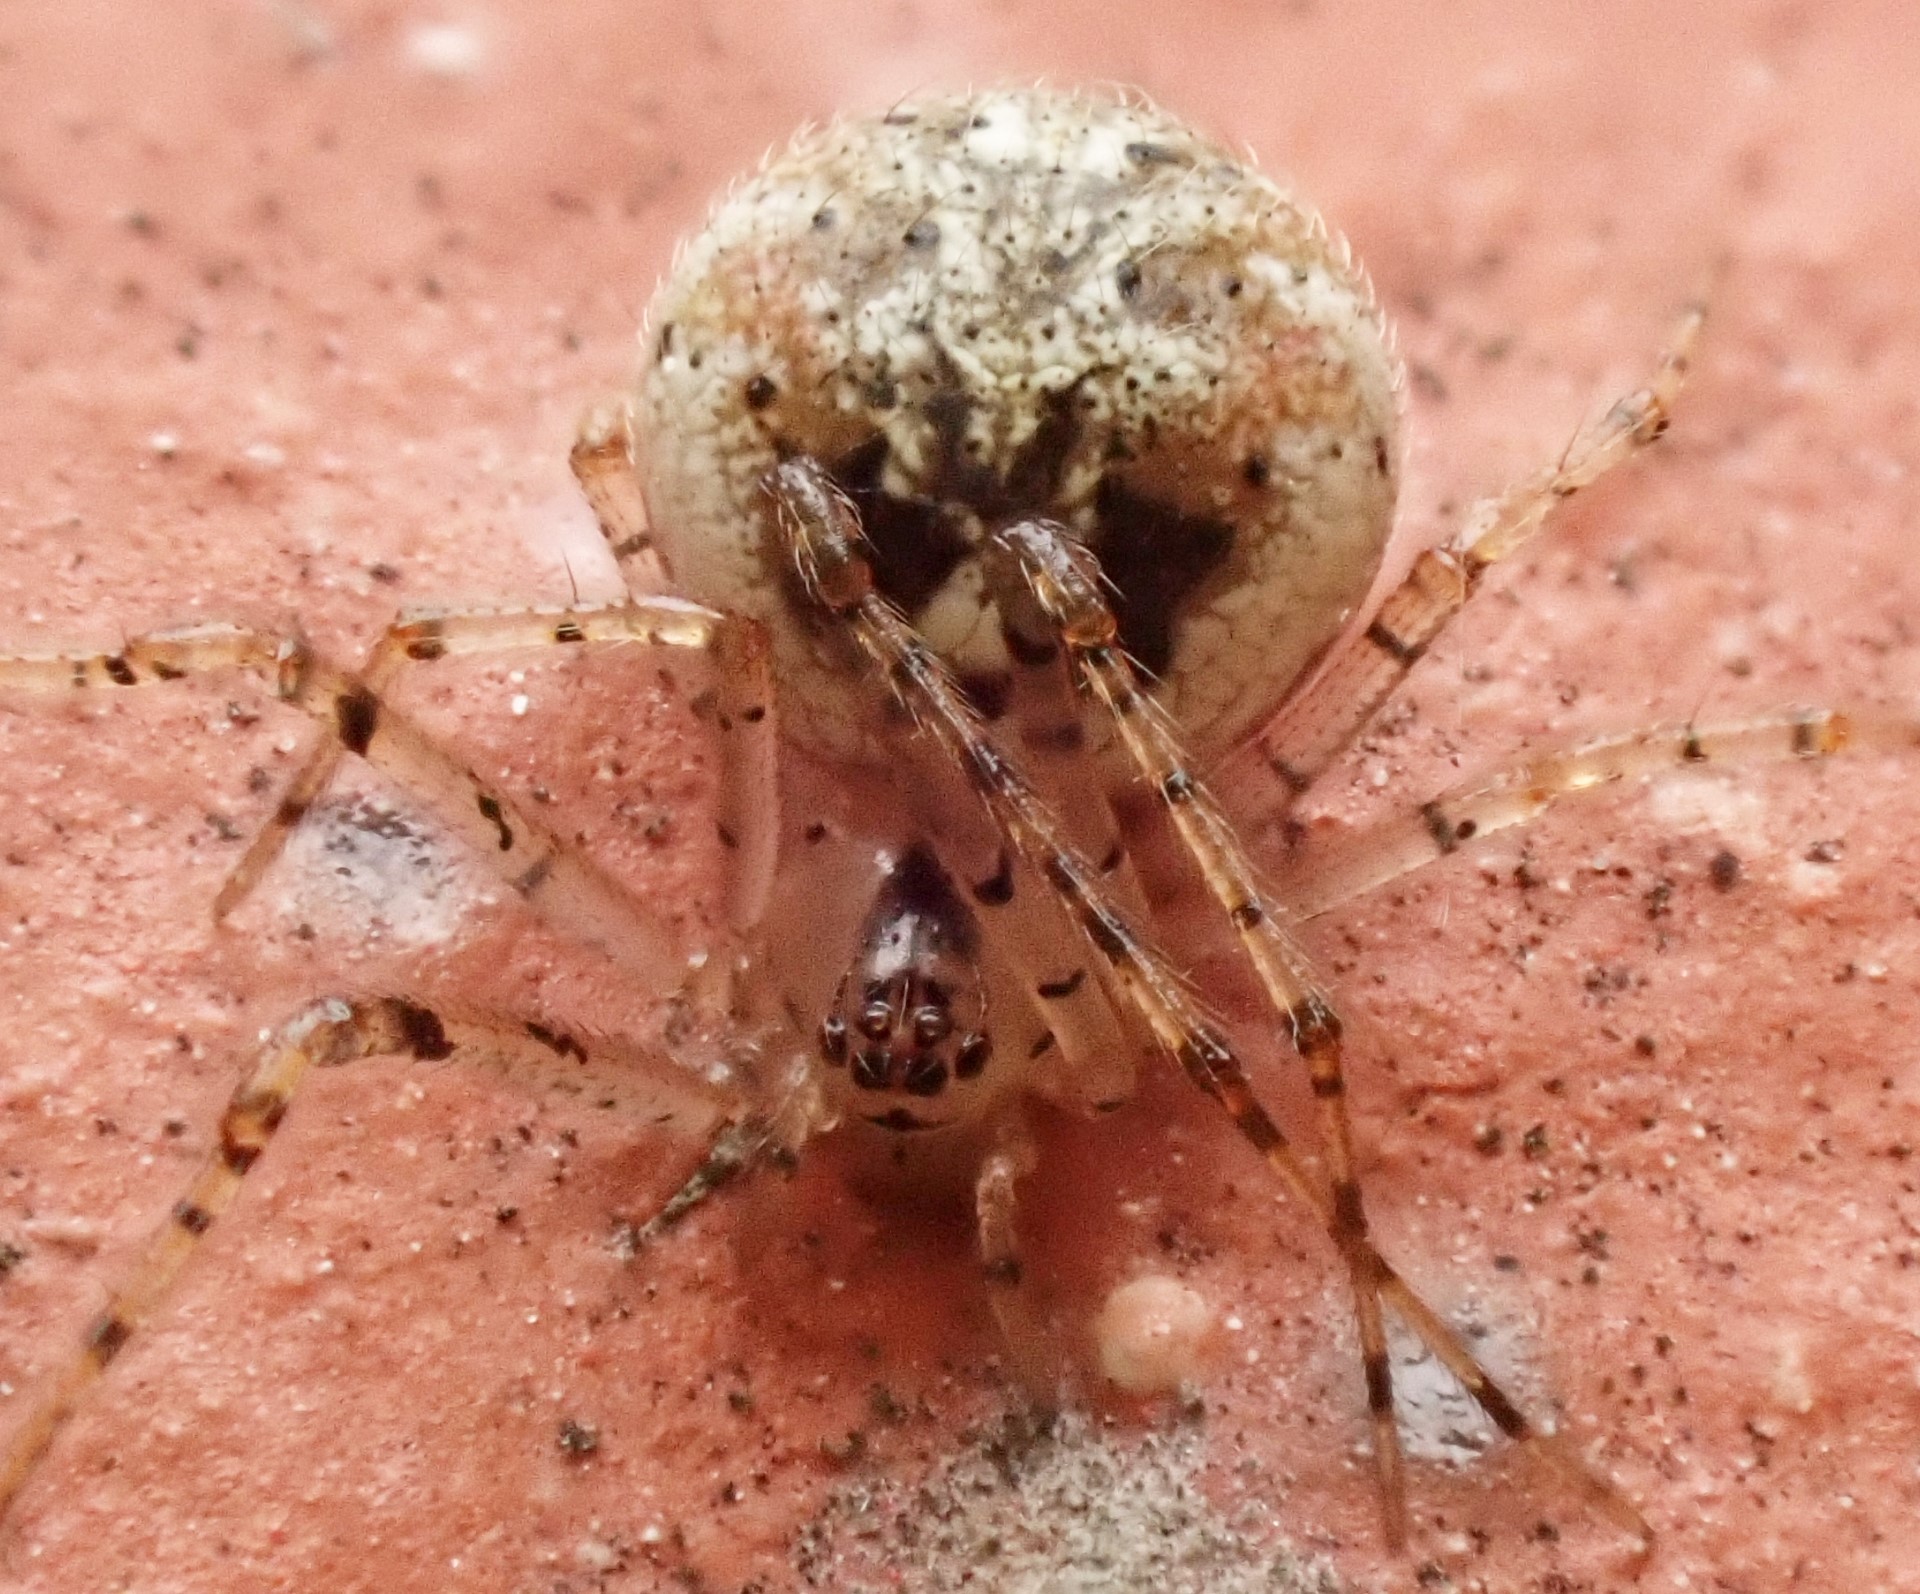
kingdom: Animalia
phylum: Arthropoda
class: Arachnida
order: Araneae
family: Theridiidae
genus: Platnickina
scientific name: Platnickina tincta
